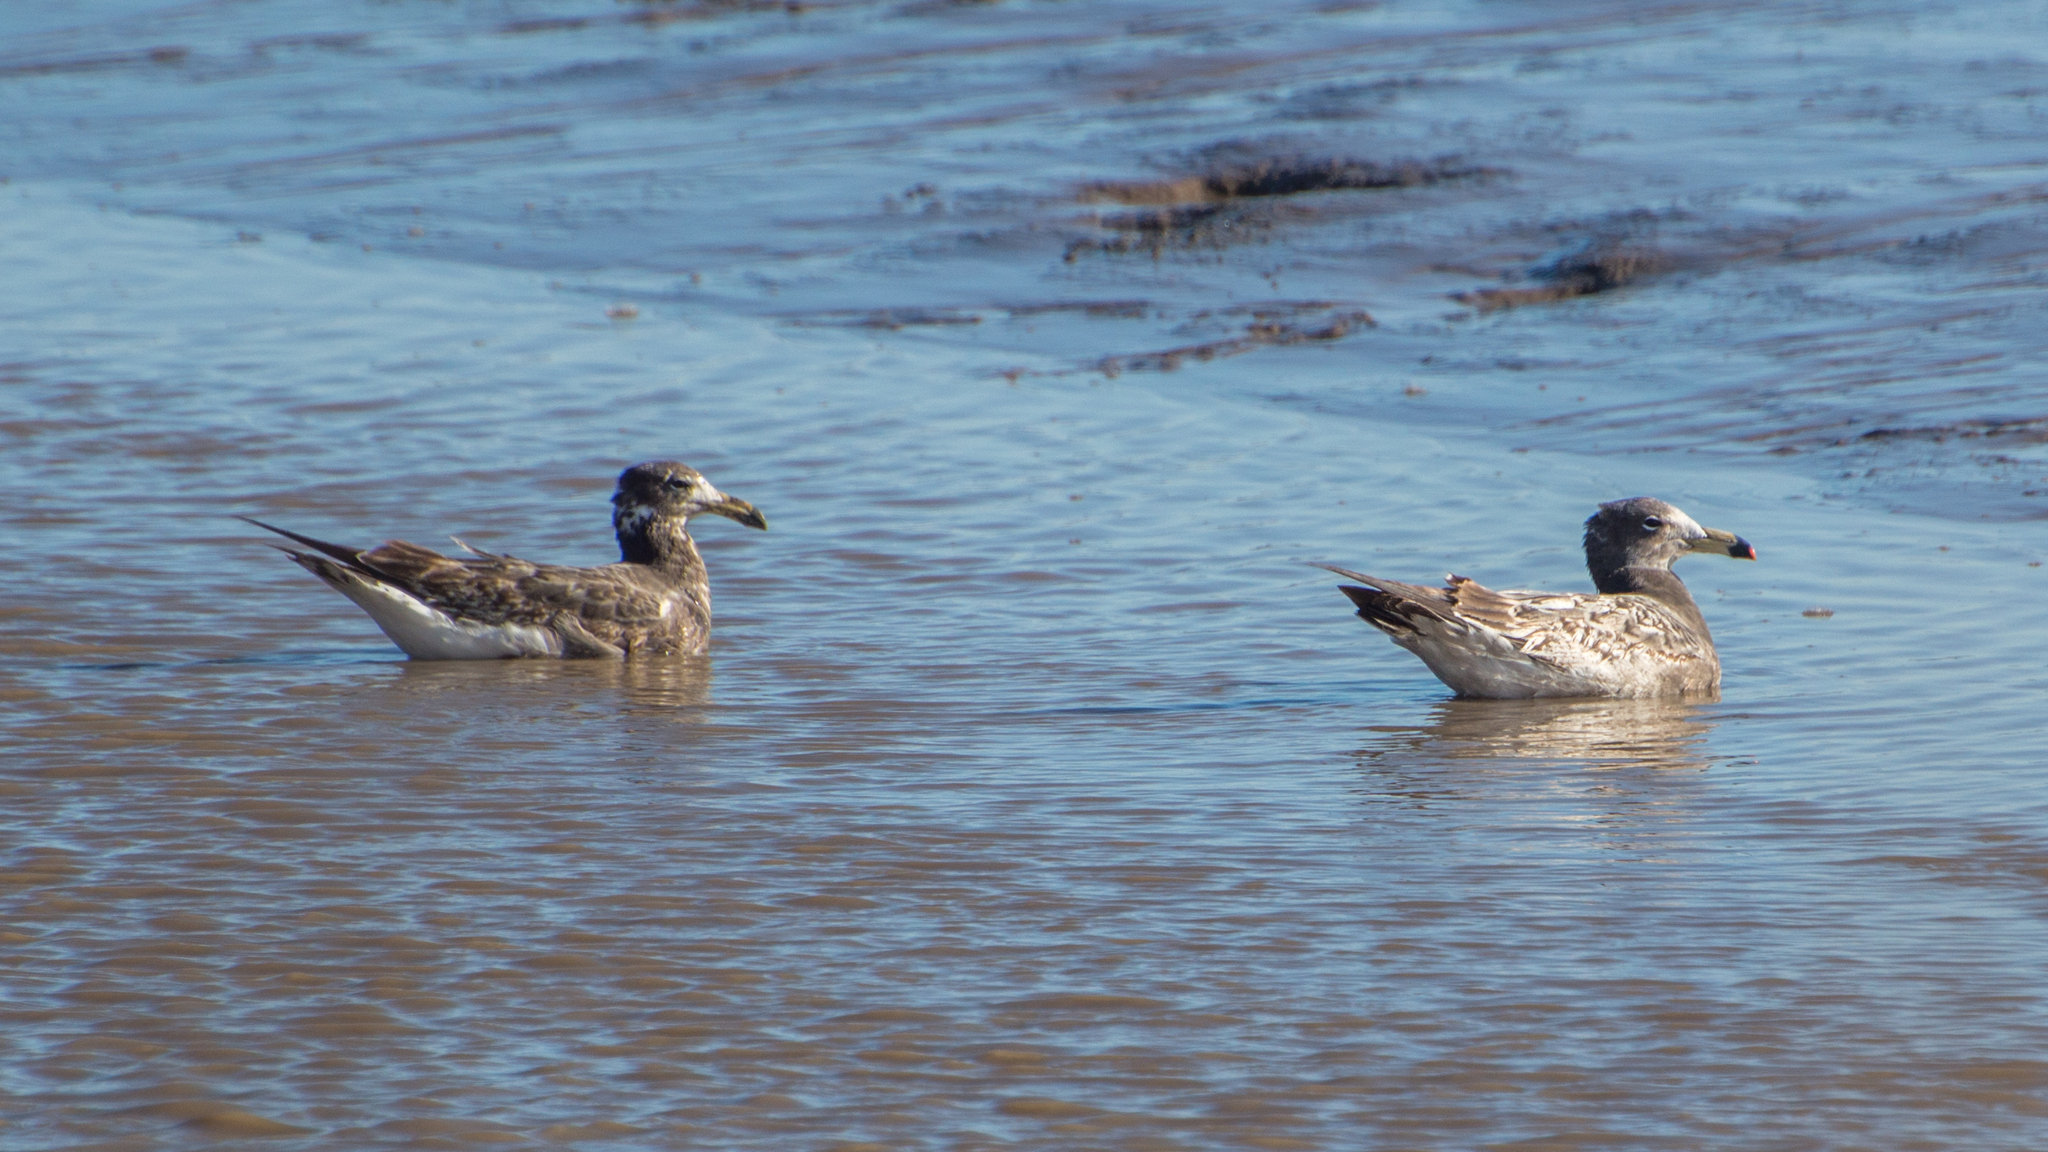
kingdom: Animalia
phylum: Chordata
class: Aves
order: Charadriiformes
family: Laridae
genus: Larus
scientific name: Larus atlanticus
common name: Olrog's gull
